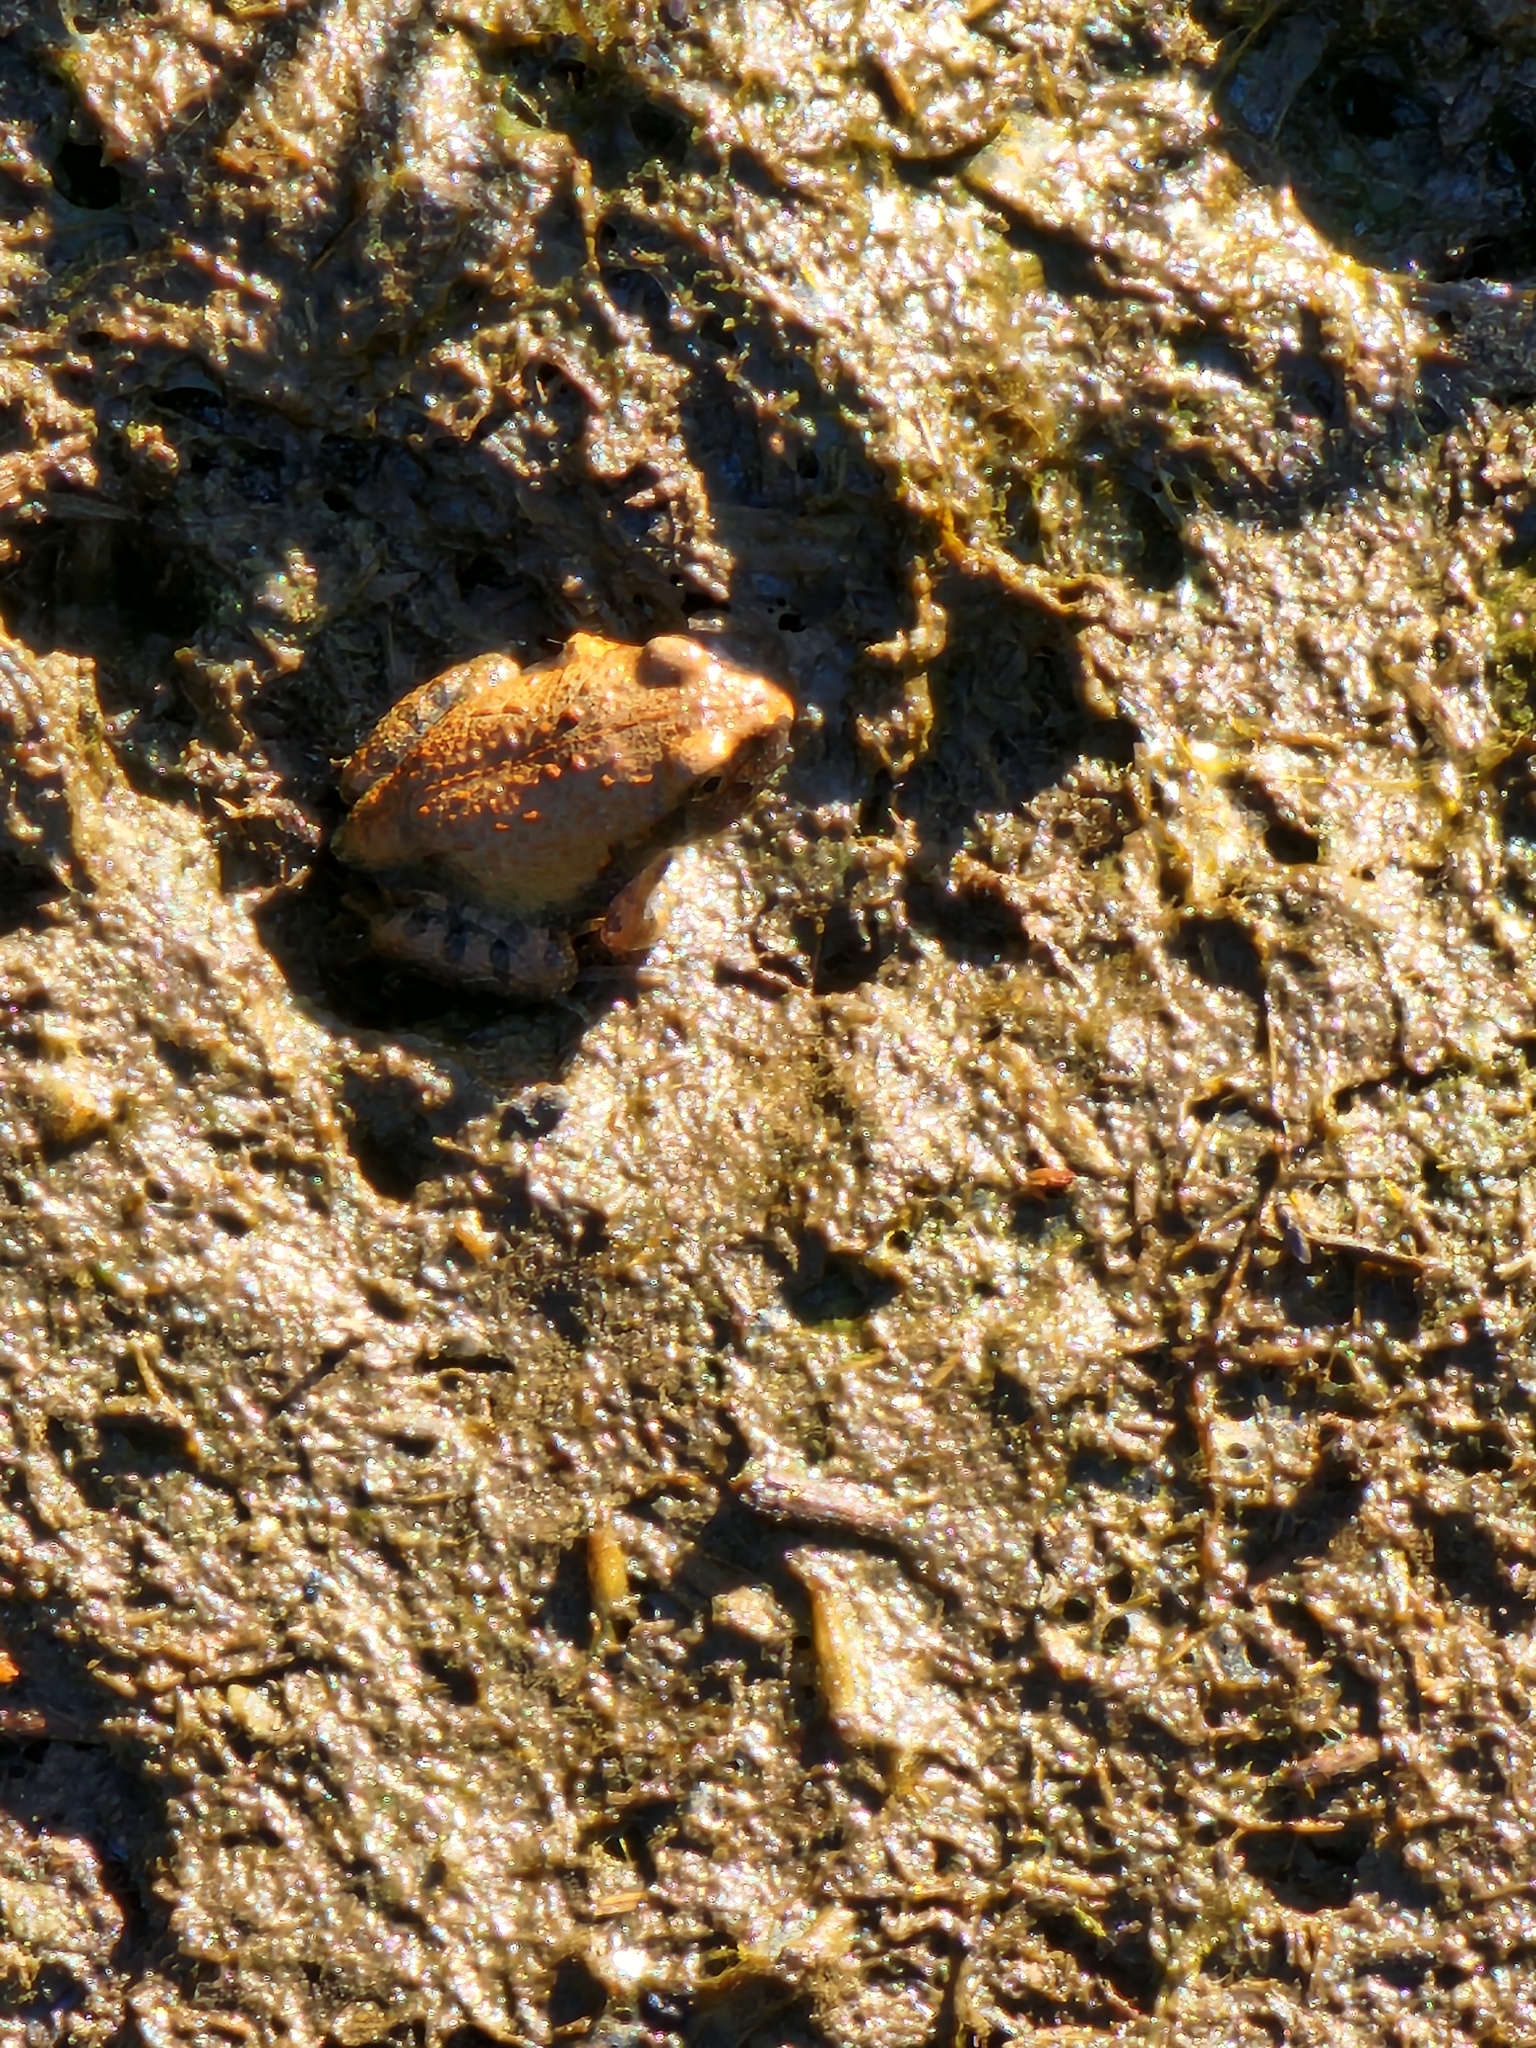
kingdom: Animalia
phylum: Chordata
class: Amphibia
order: Anura
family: Limnodynastidae
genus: Platyplectrum
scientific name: Platyplectrum ornatum
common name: Ornate burrowing frog
